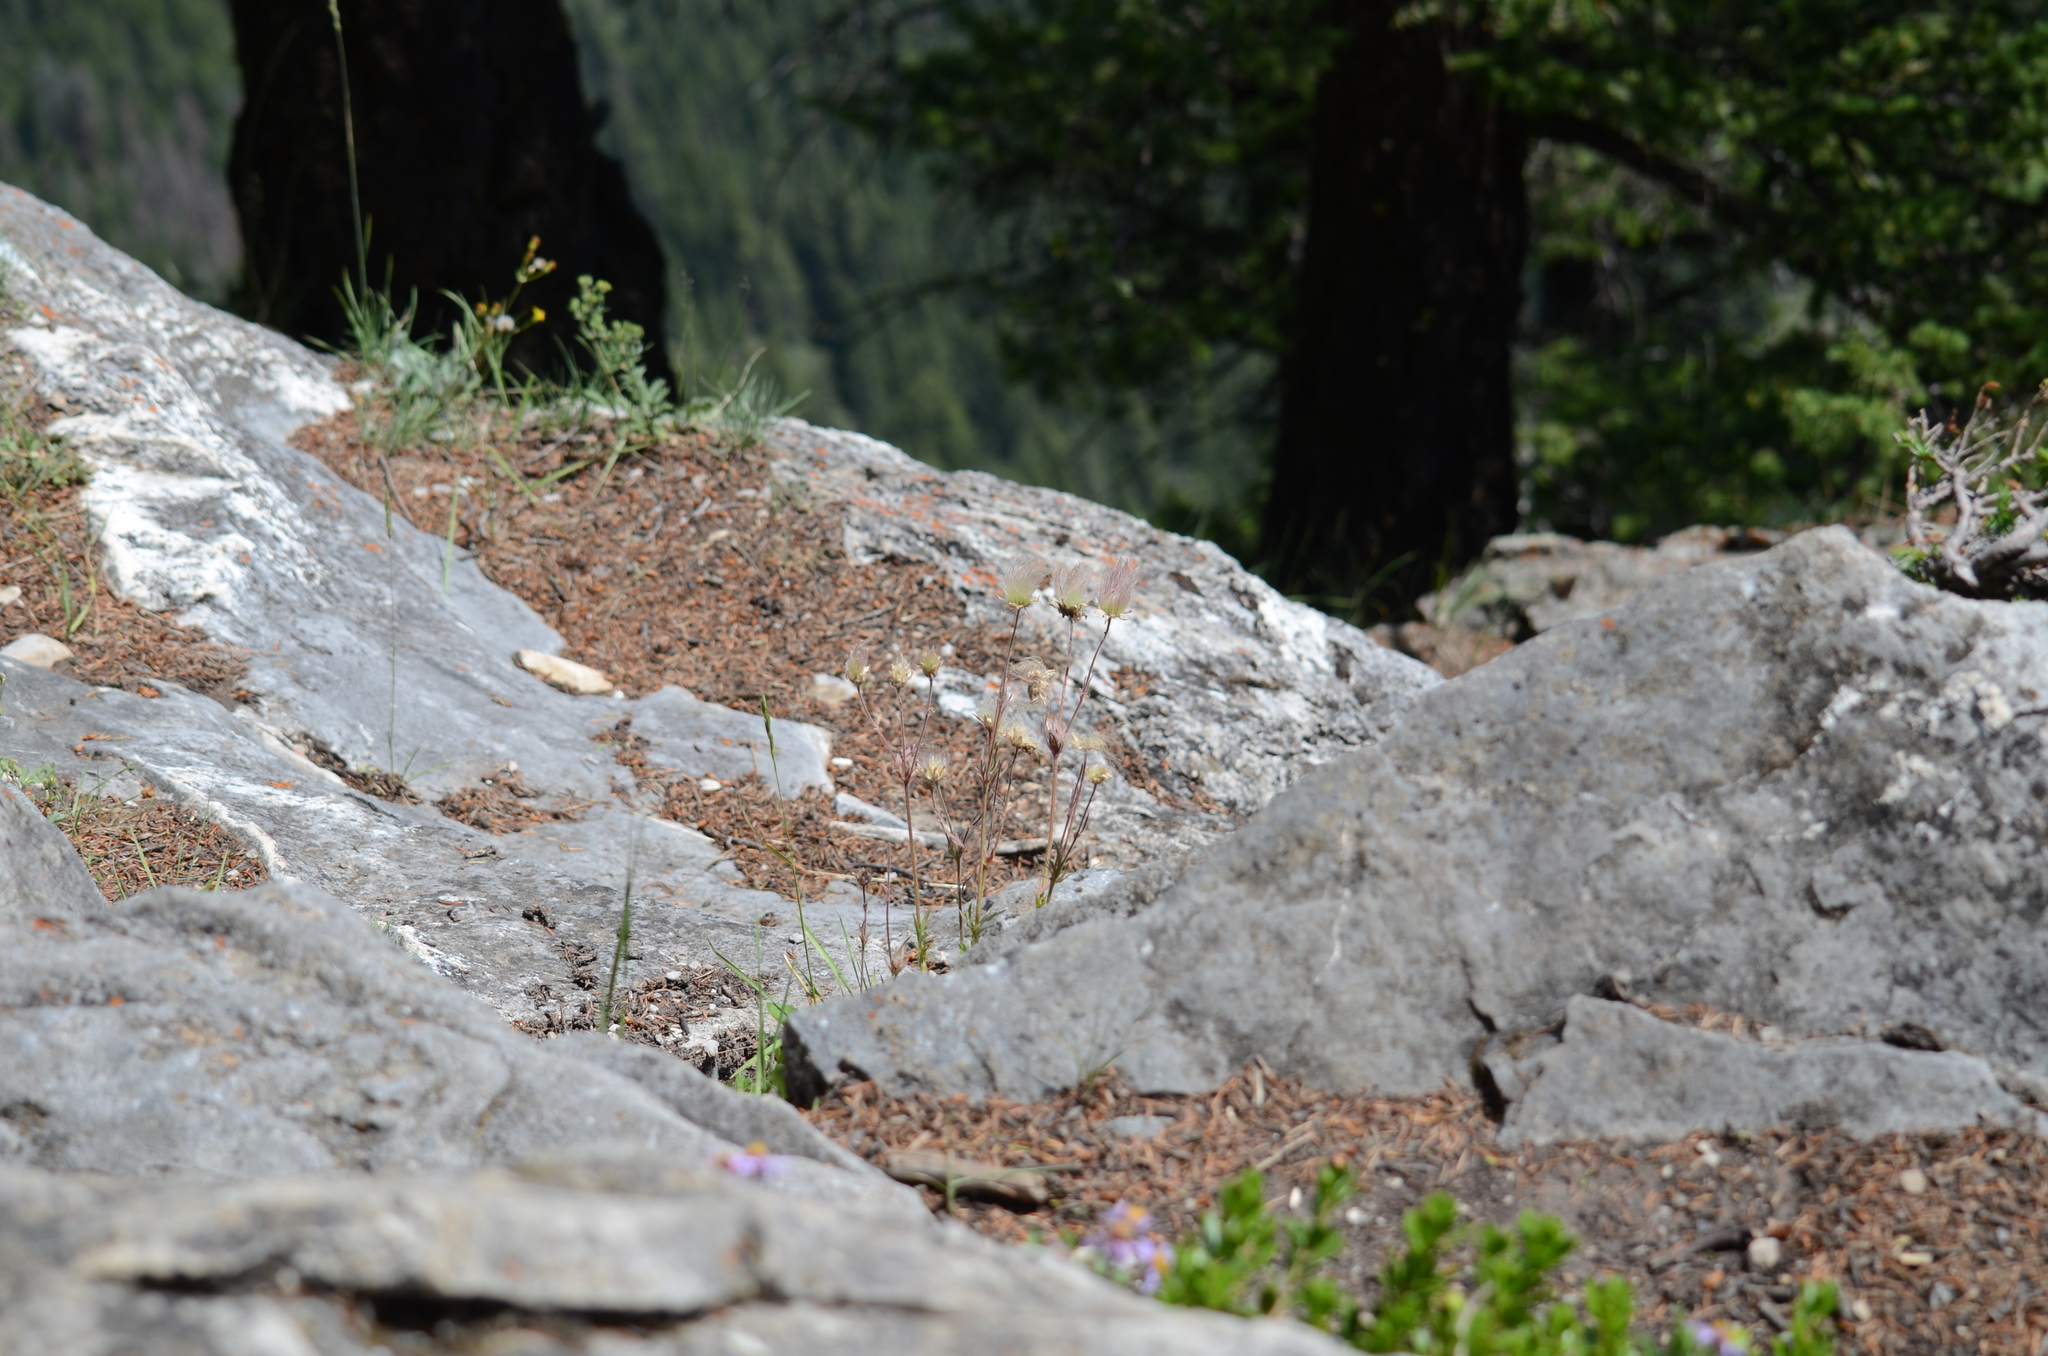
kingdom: Plantae
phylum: Tracheophyta
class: Magnoliopsida
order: Rosales
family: Rosaceae
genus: Geum
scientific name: Geum triflorum
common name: Old man's whiskers
